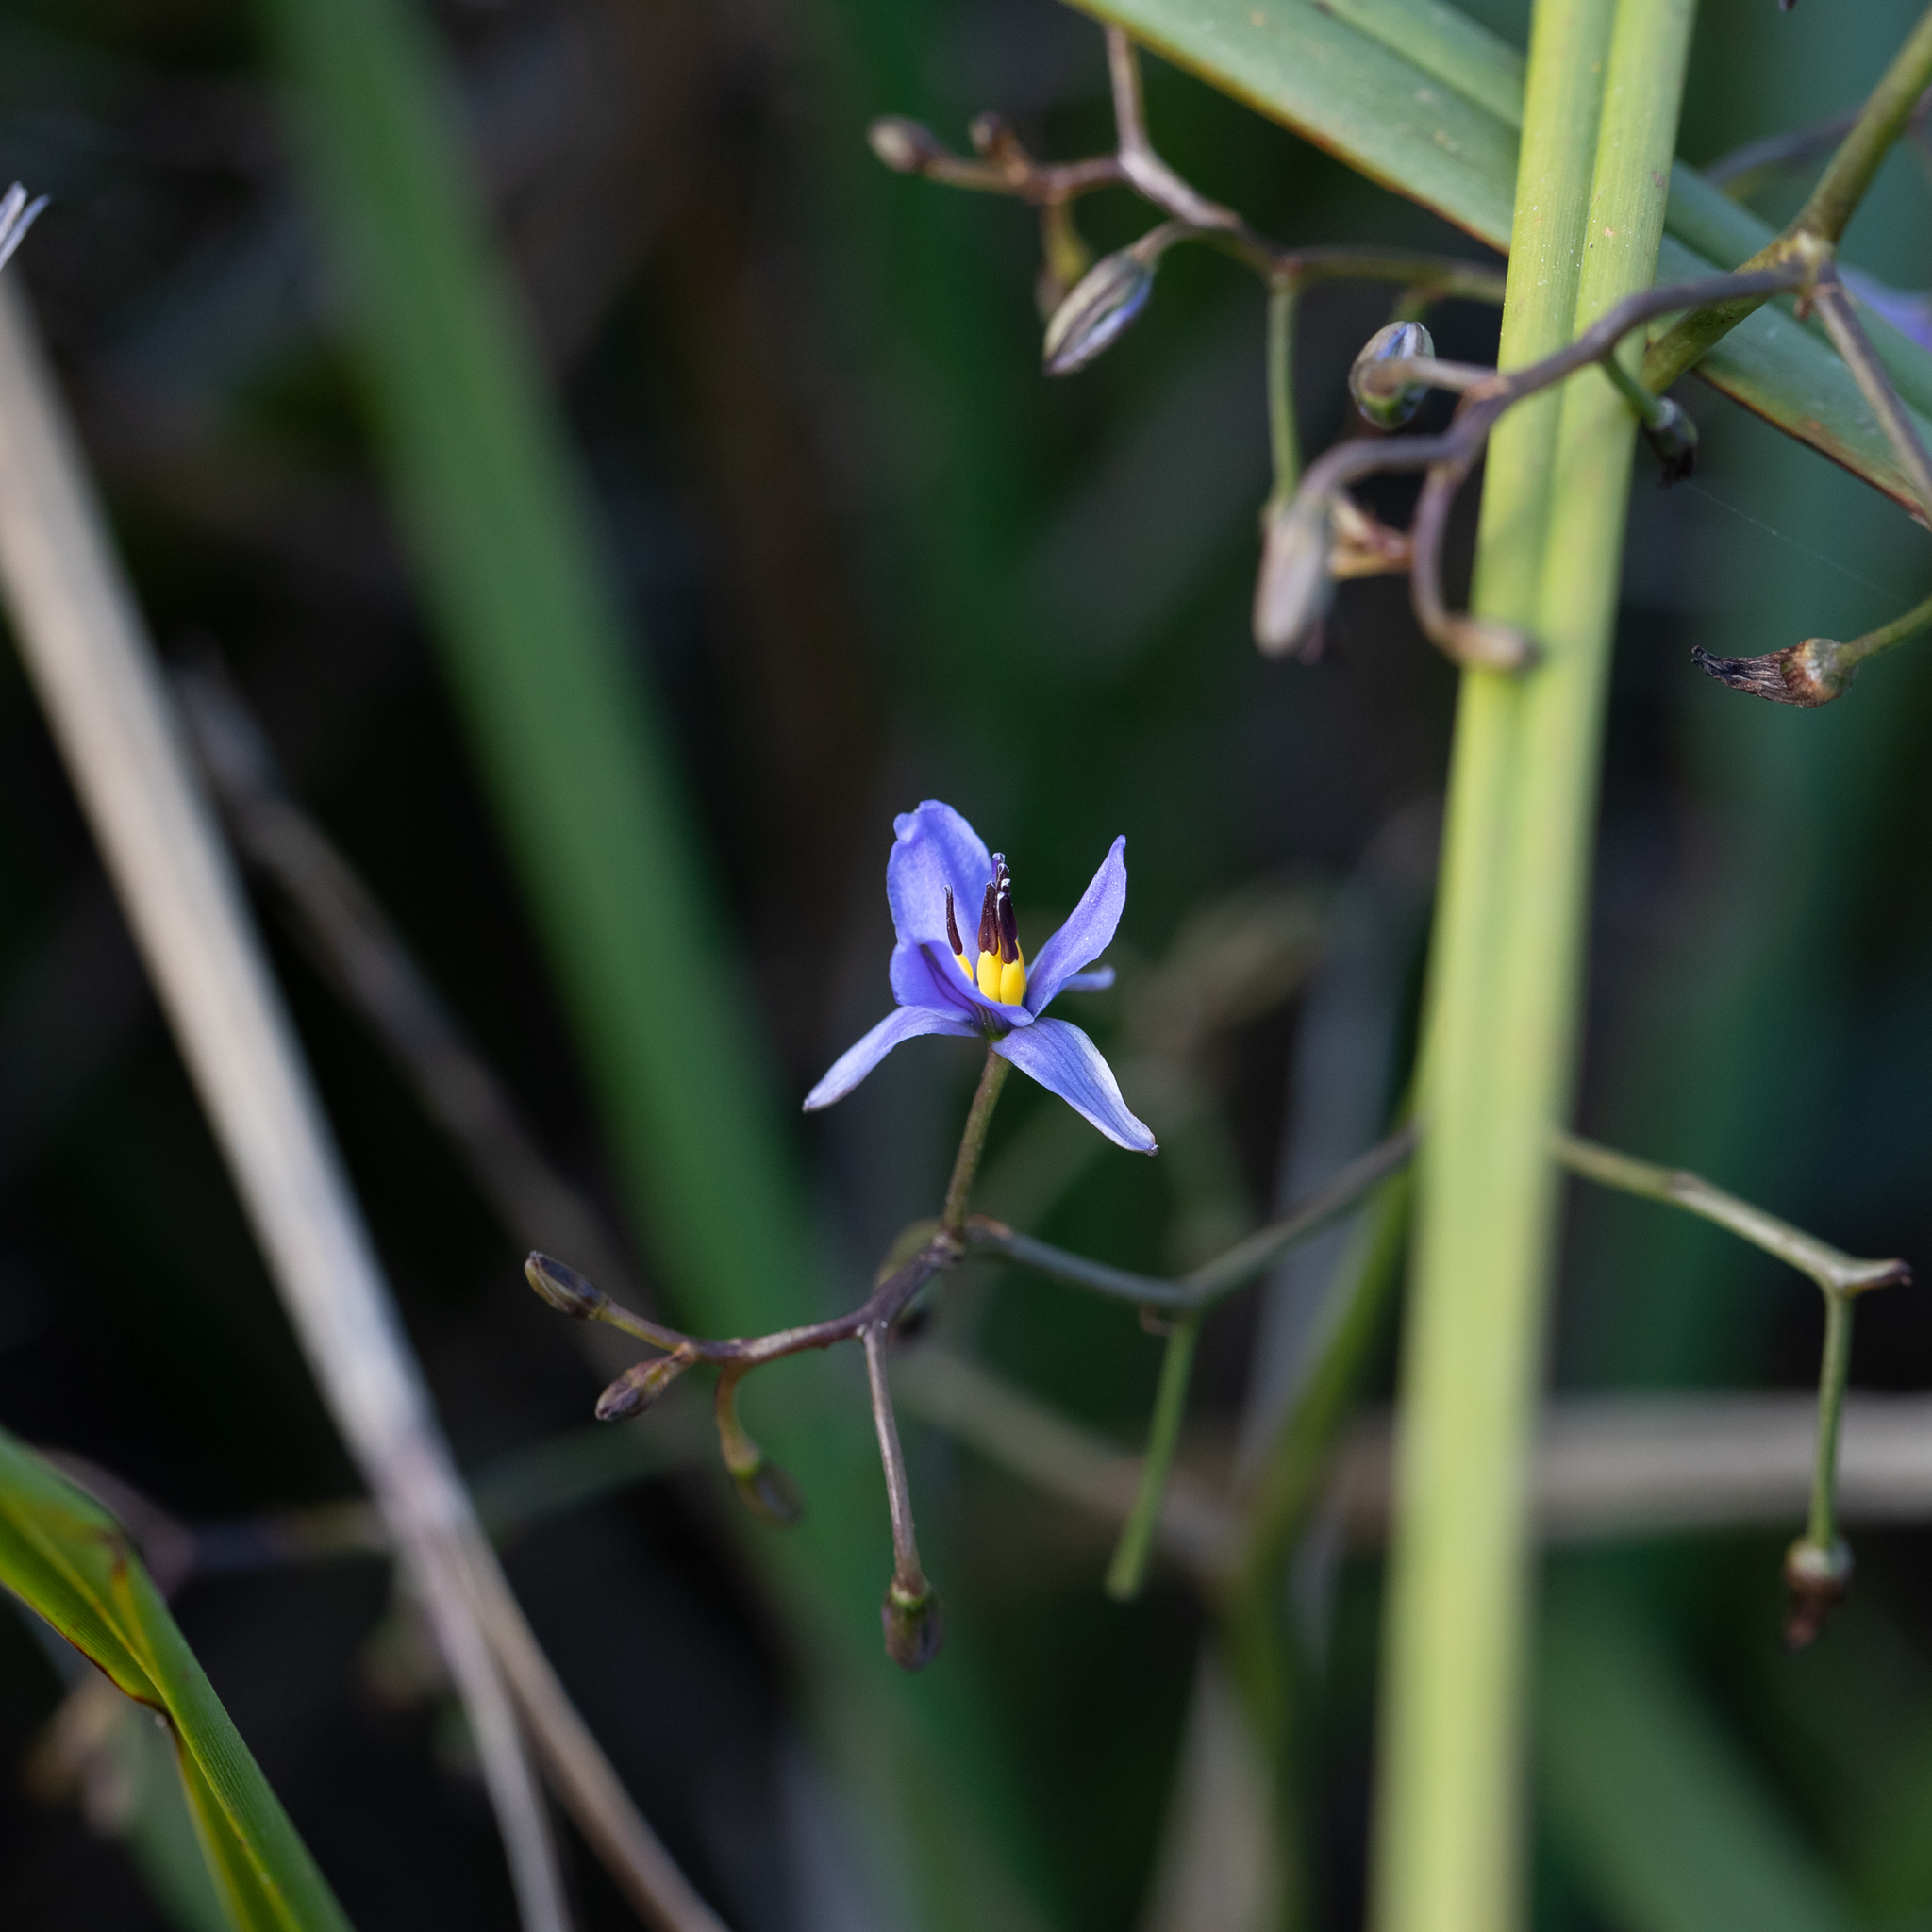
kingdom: Plantae
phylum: Tracheophyta
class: Liliopsida
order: Asparagales
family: Asphodelaceae
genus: Dianella
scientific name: Dianella brevicaulis
